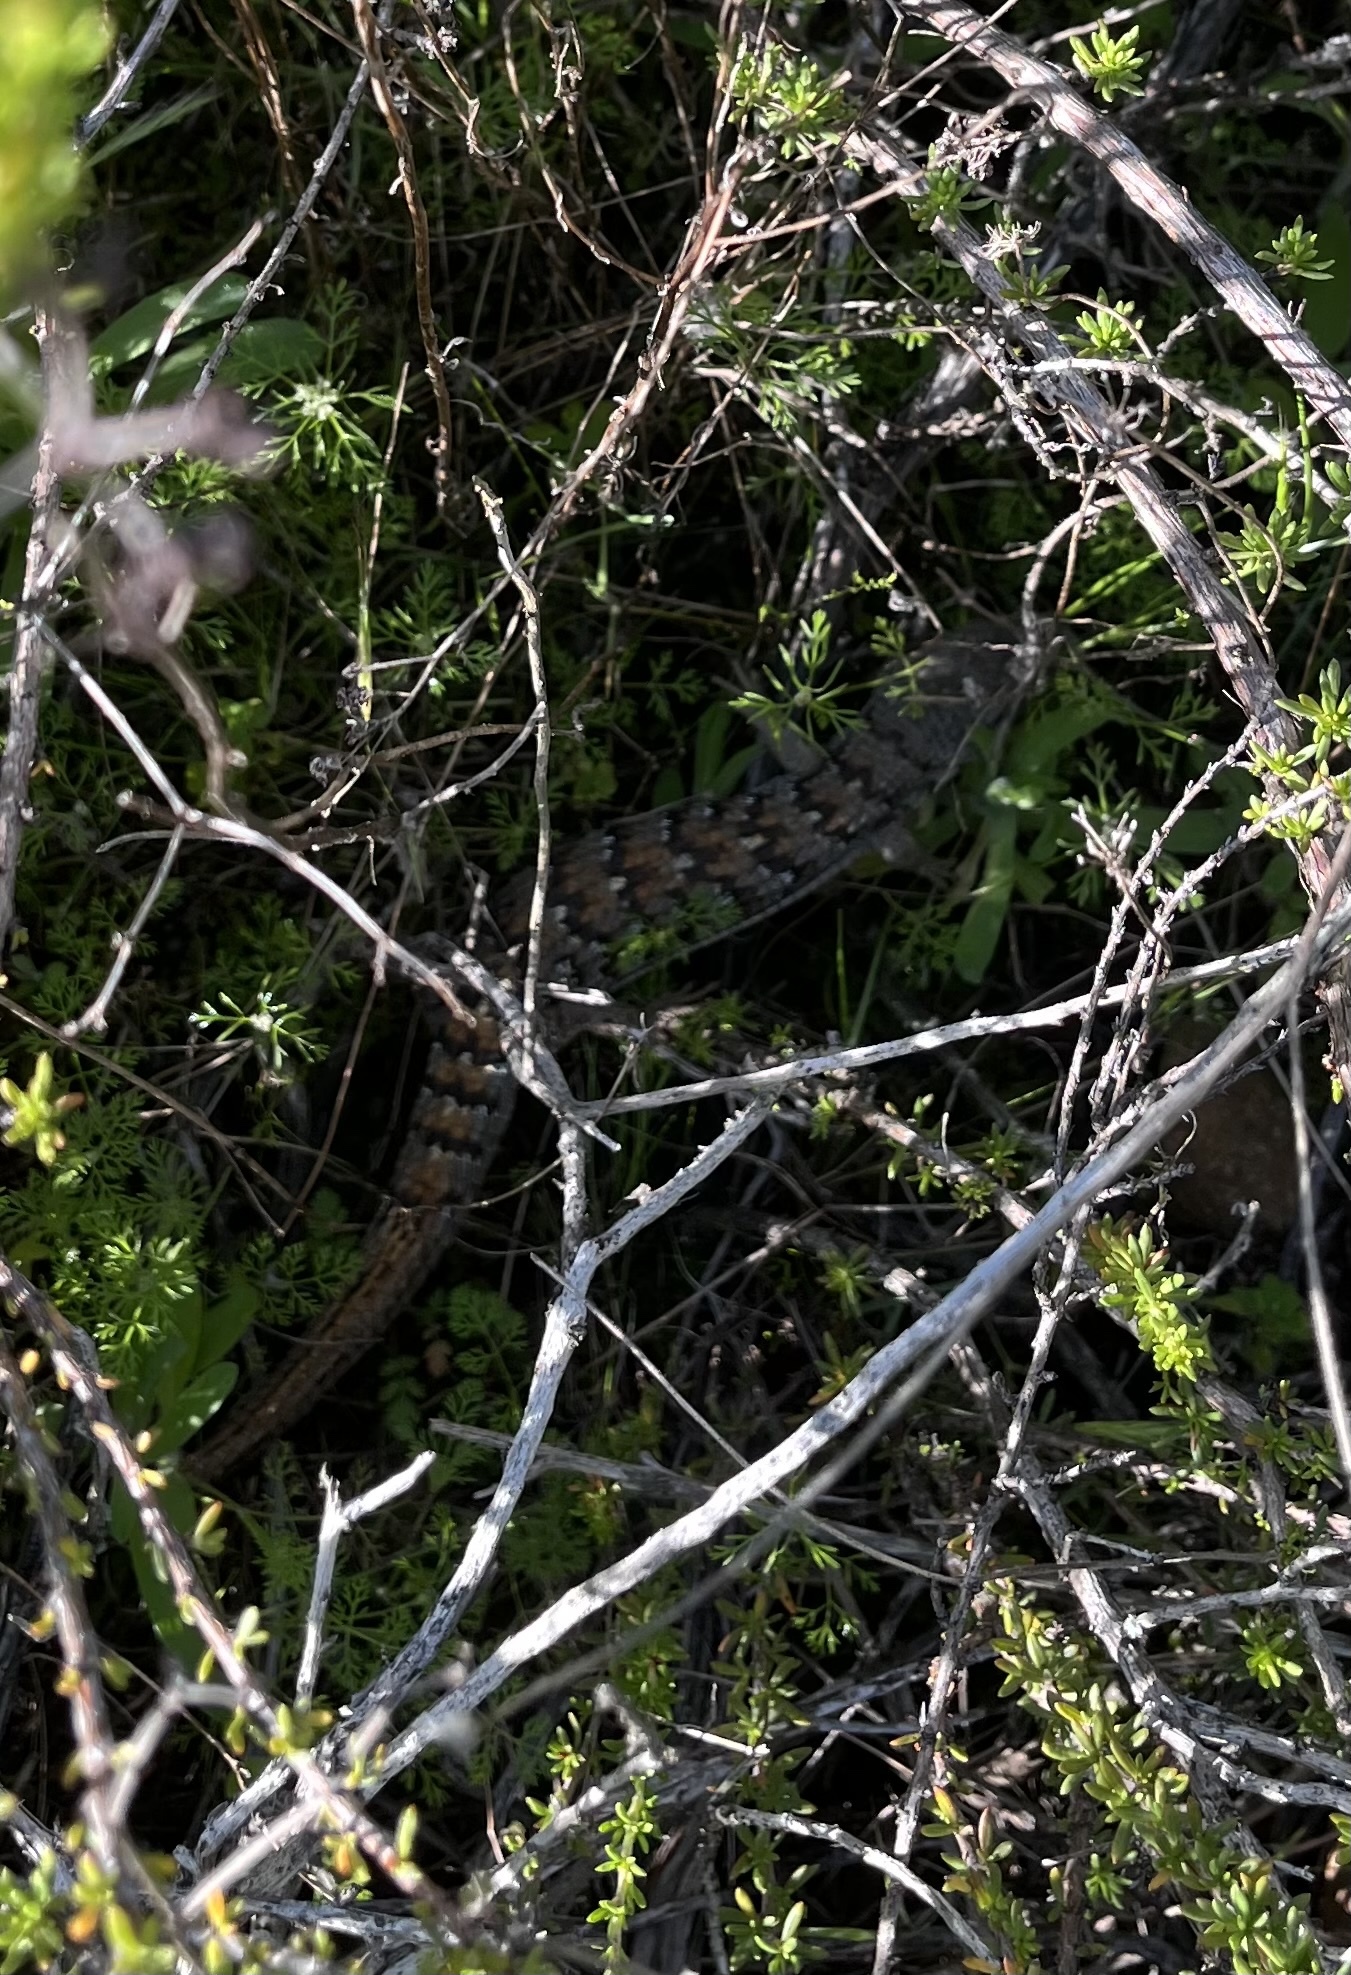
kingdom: Animalia
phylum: Chordata
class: Squamata
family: Anguidae
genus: Elgaria
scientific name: Elgaria multicarinata
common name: Southern alligator lizard
